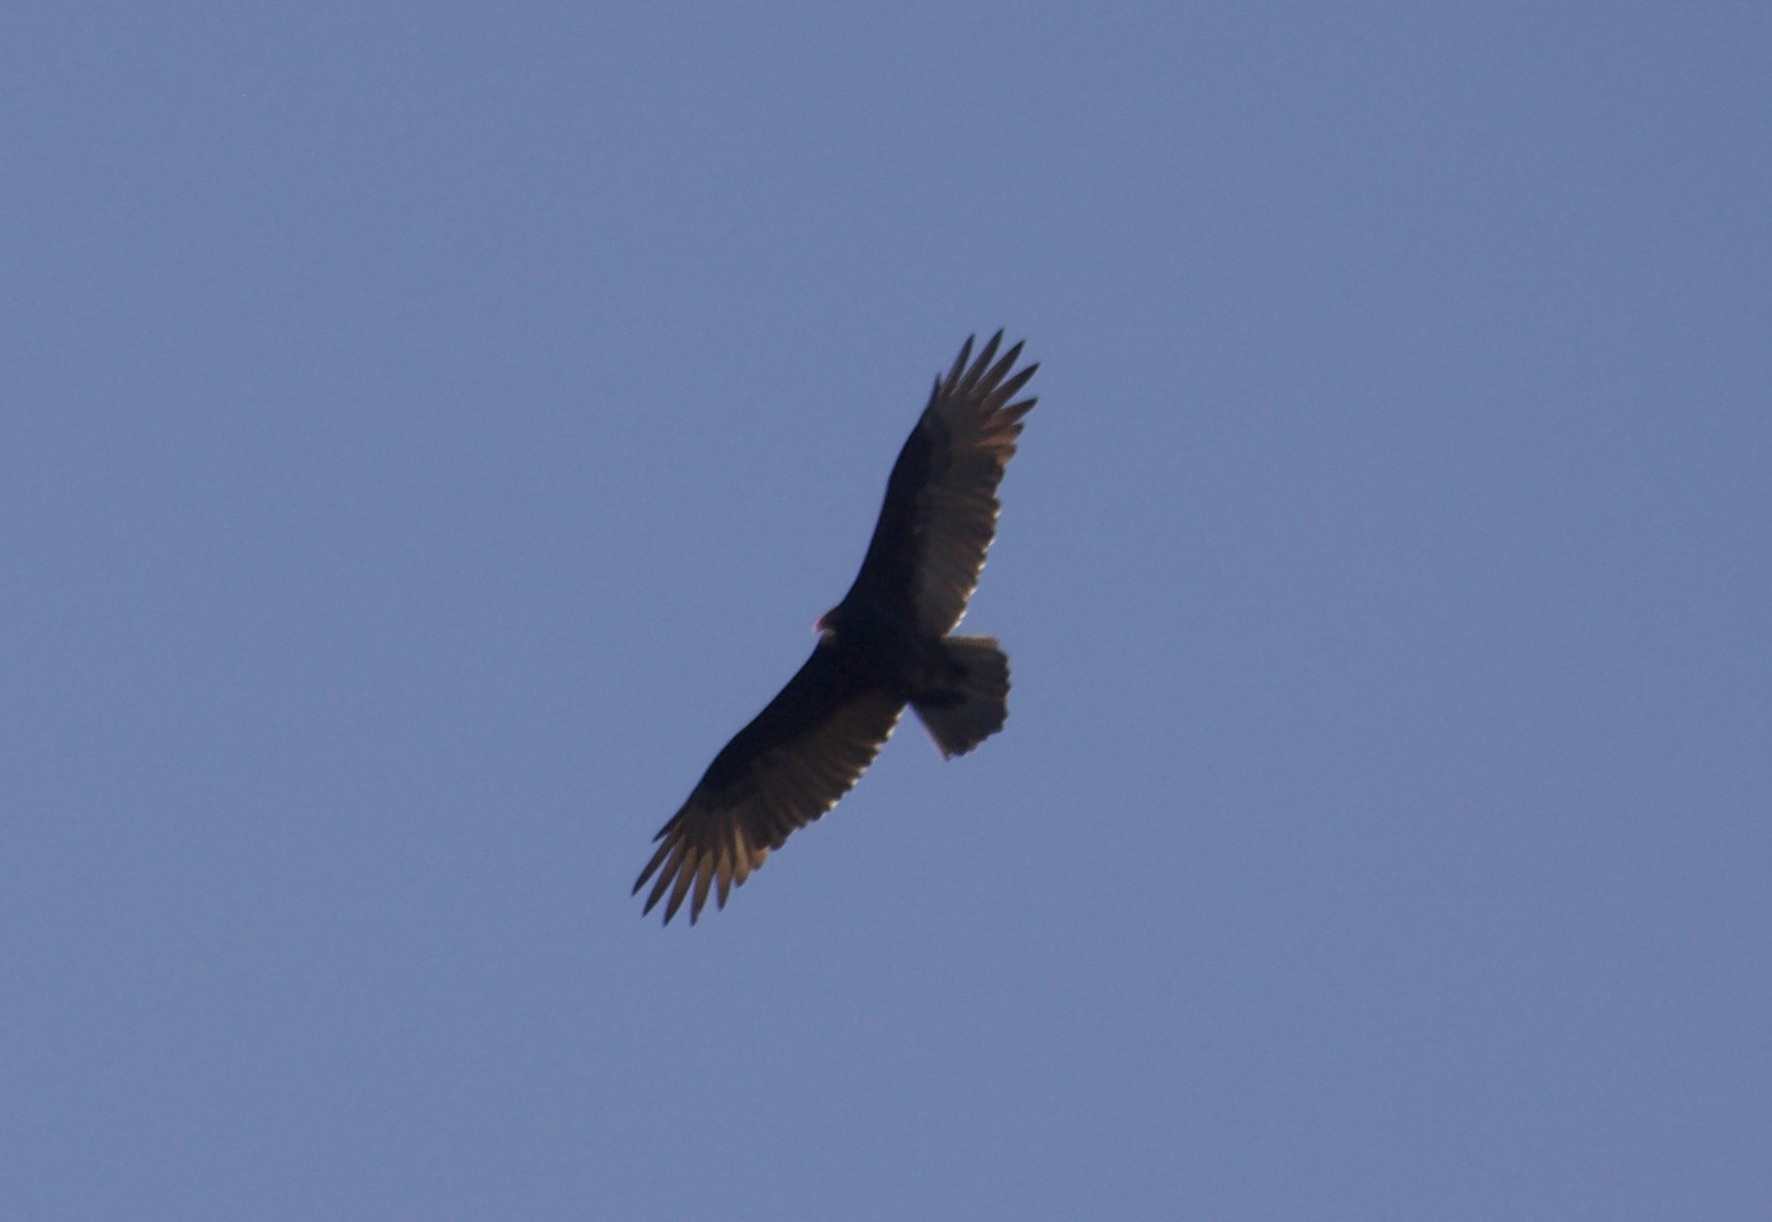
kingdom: Animalia
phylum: Chordata
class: Aves
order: Accipitriformes
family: Cathartidae
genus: Cathartes
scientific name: Cathartes aura
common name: Turkey vulture
